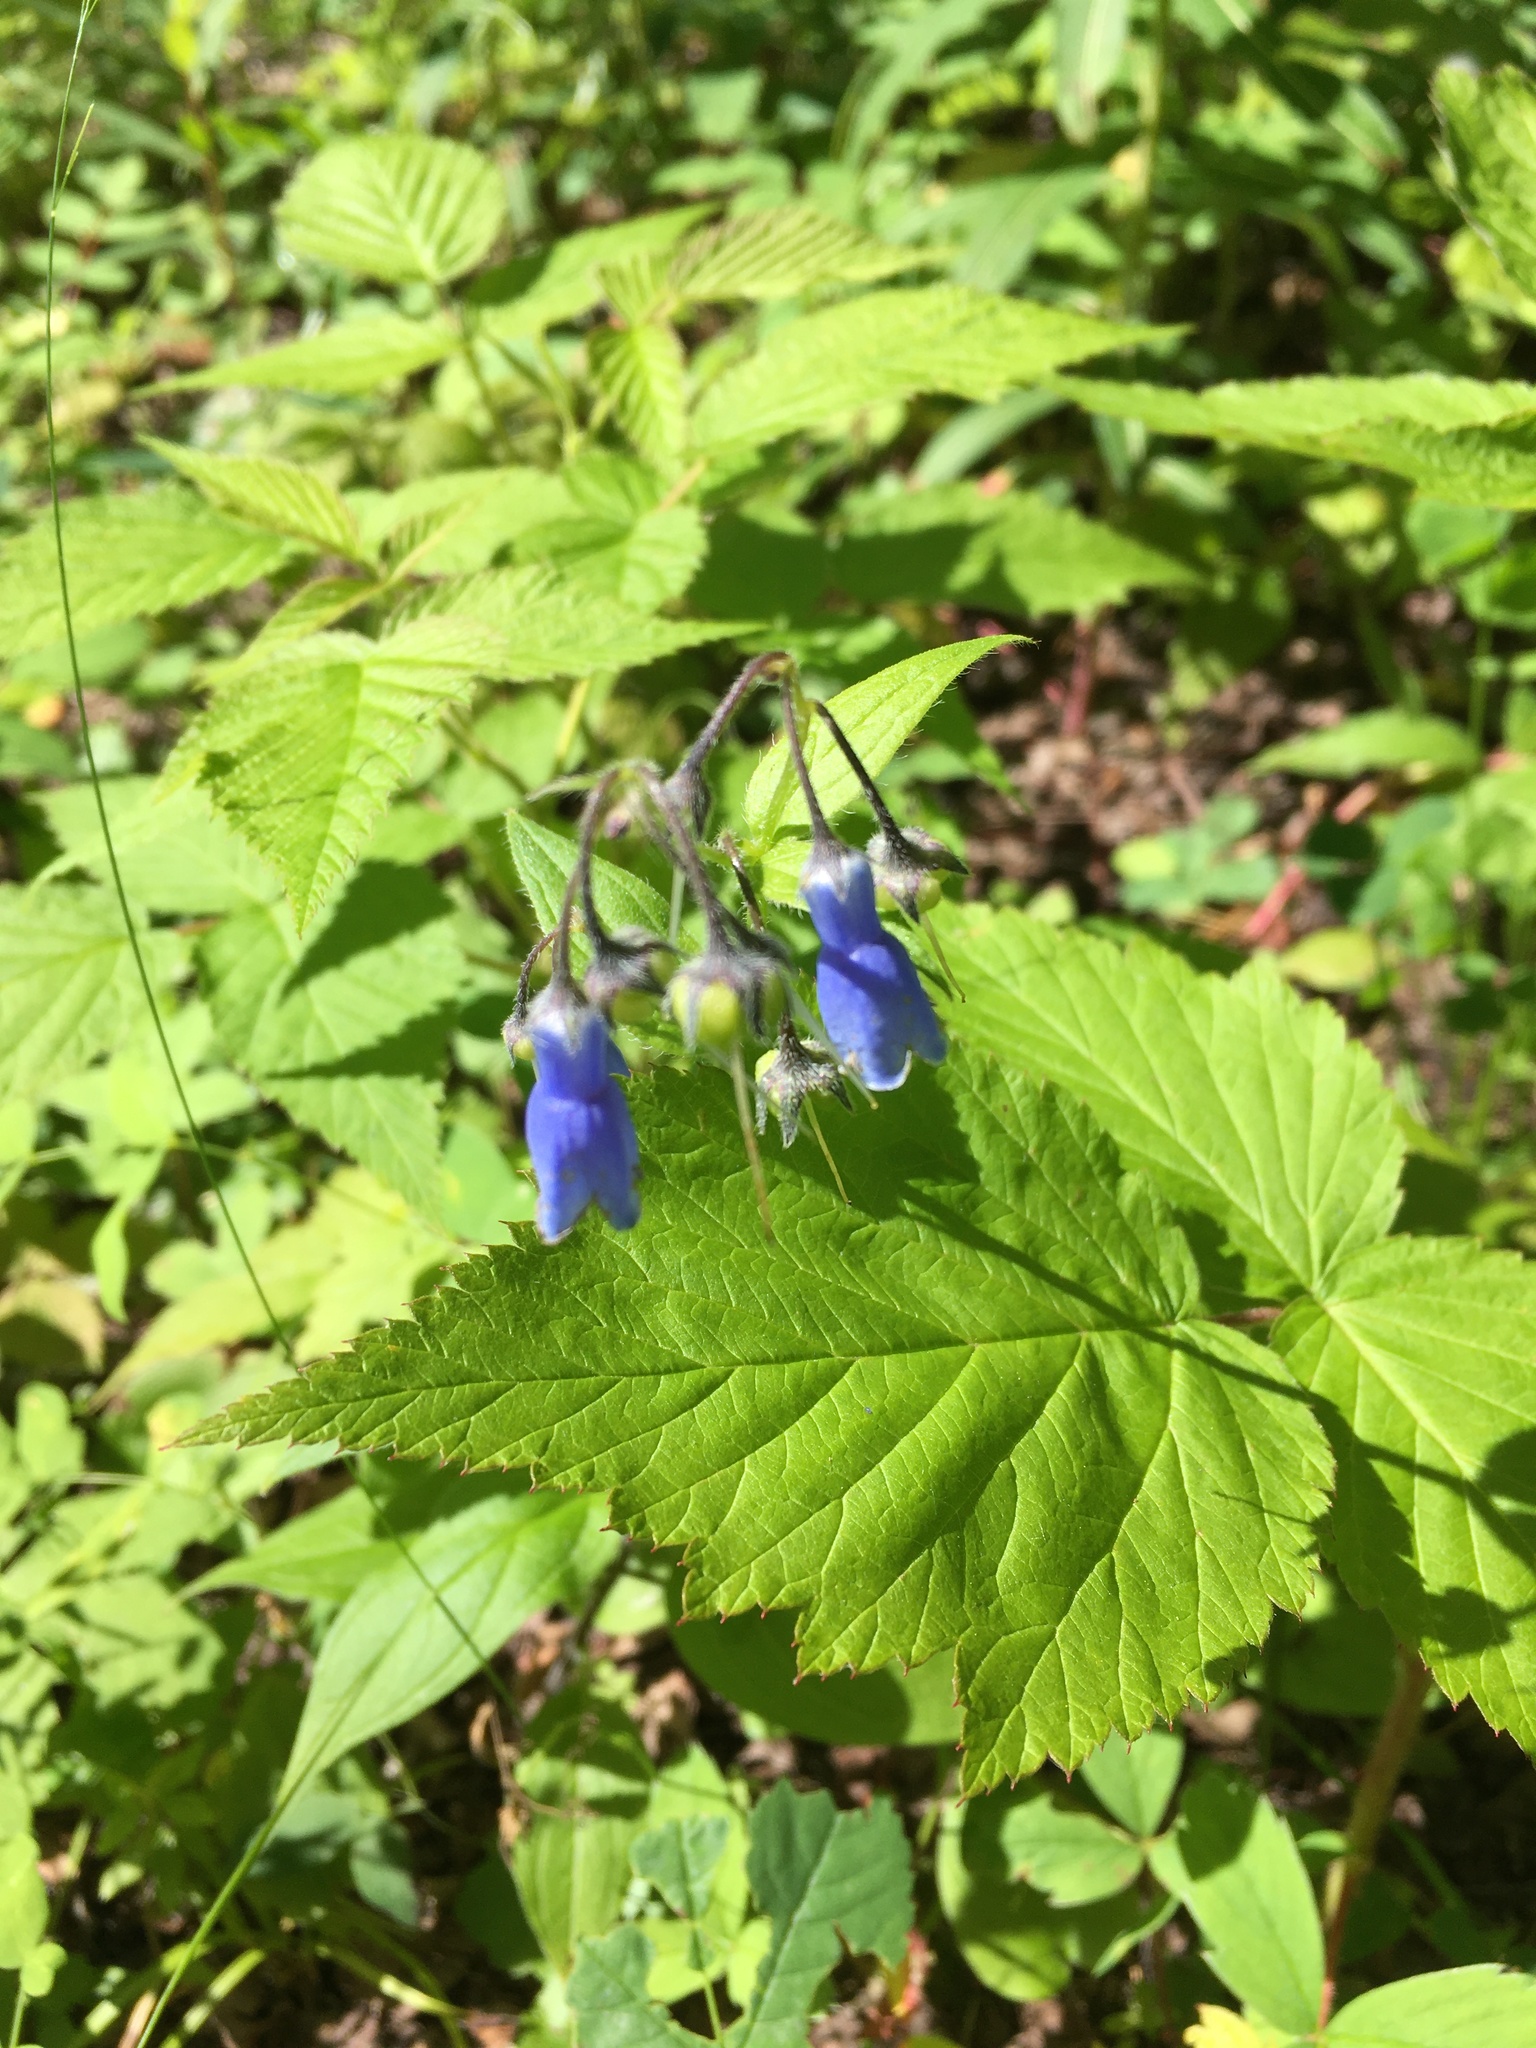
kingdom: Plantae
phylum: Tracheophyta
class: Magnoliopsida
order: Boraginales
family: Boraginaceae
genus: Mertensia
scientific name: Mertensia paniculata
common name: Panicled bluebells
